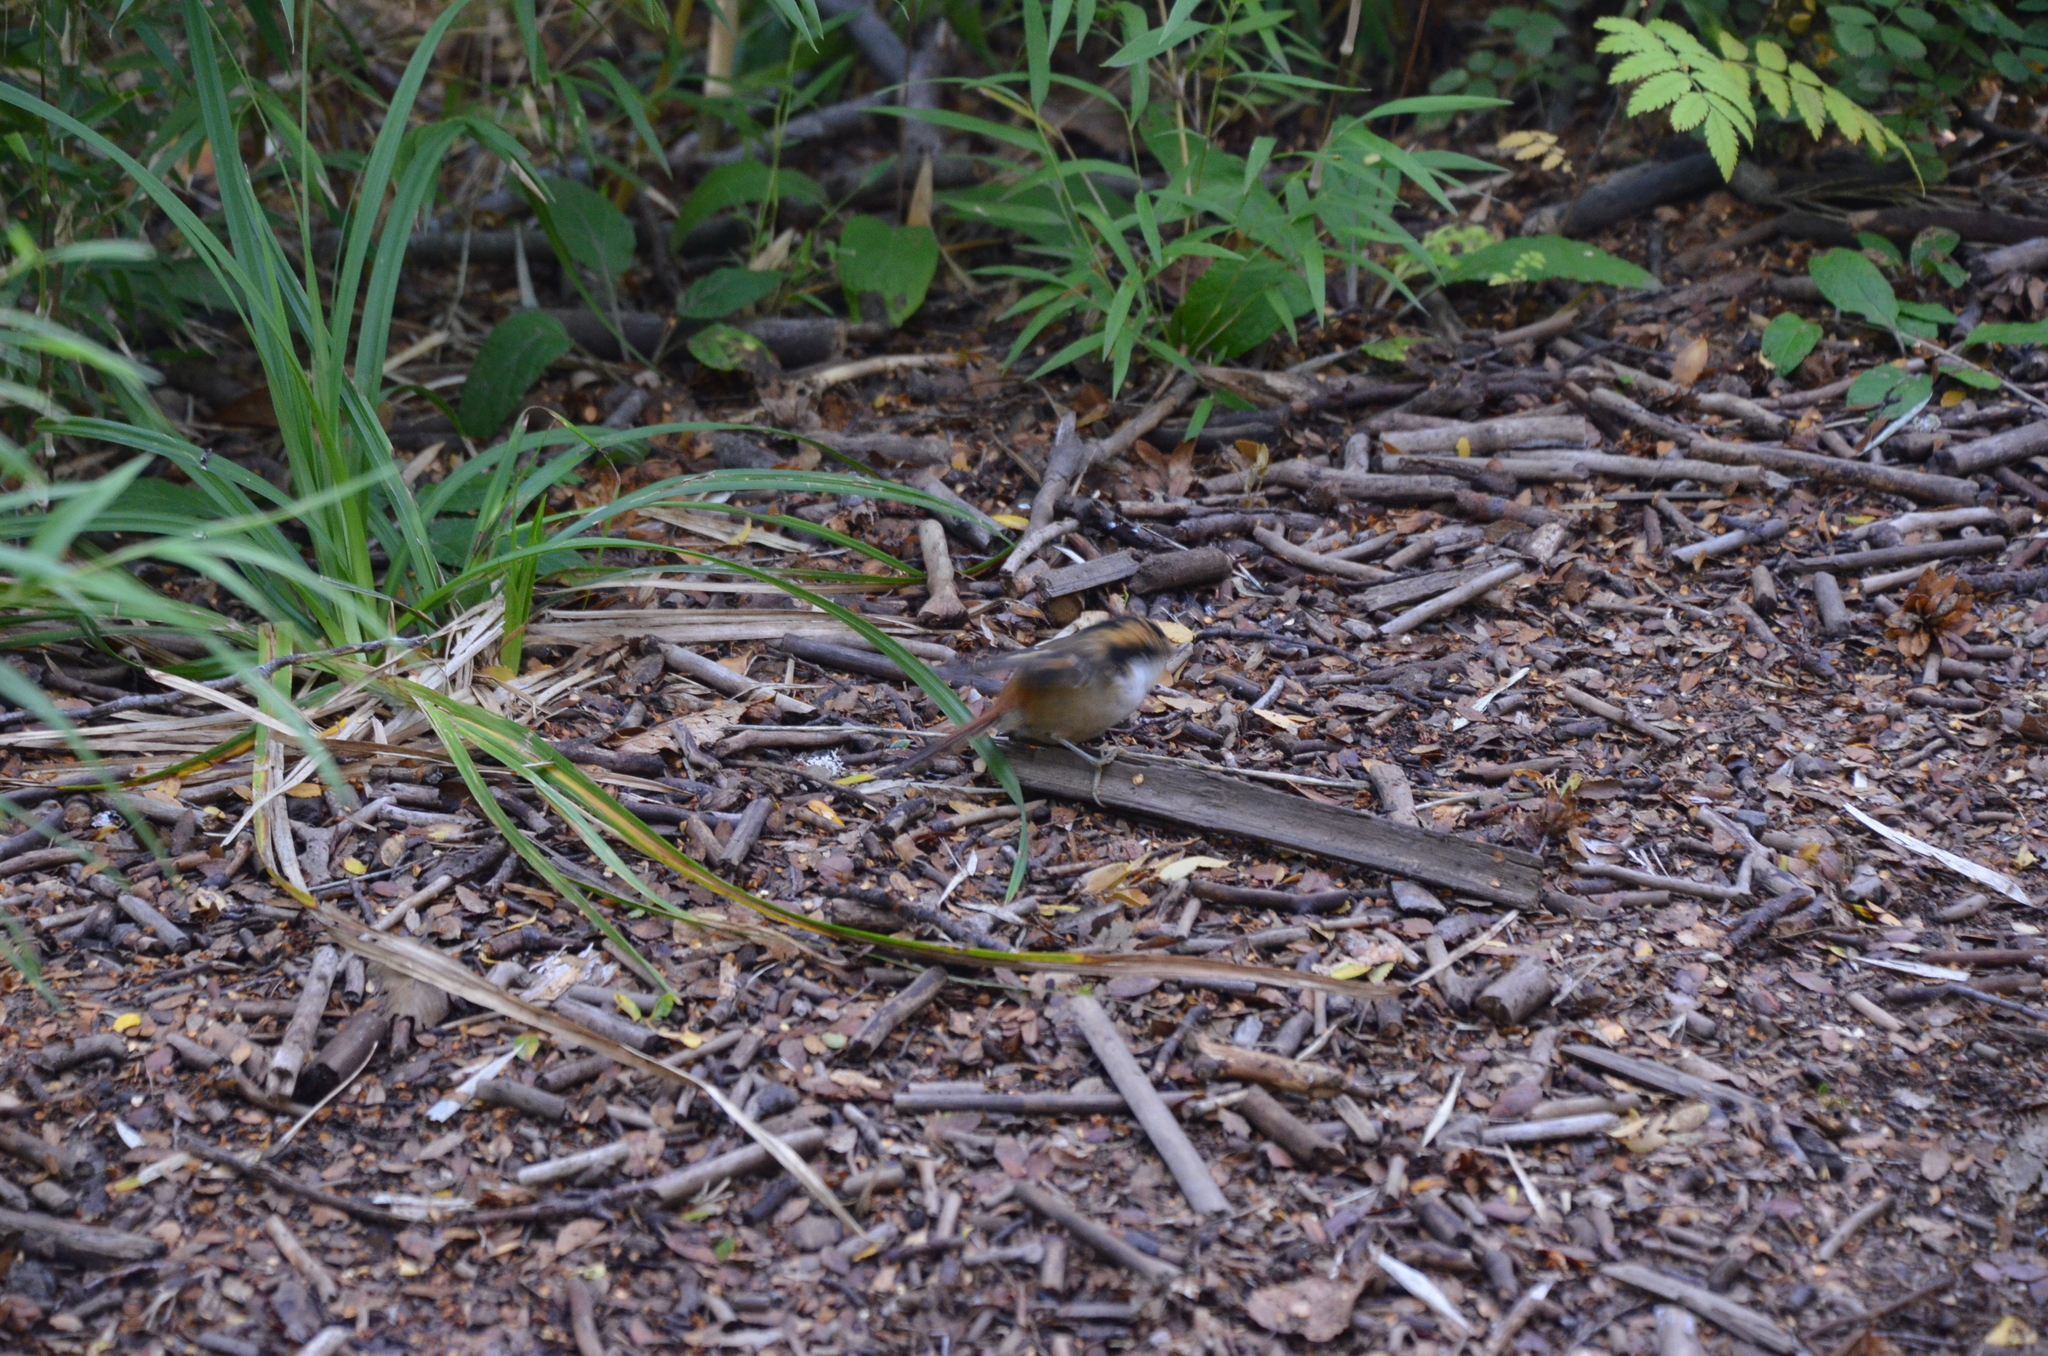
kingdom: Animalia
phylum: Chordata
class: Aves
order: Passeriformes
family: Furnariidae
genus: Aphrastura
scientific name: Aphrastura spinicauda
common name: Thorn-tailed rayadito
